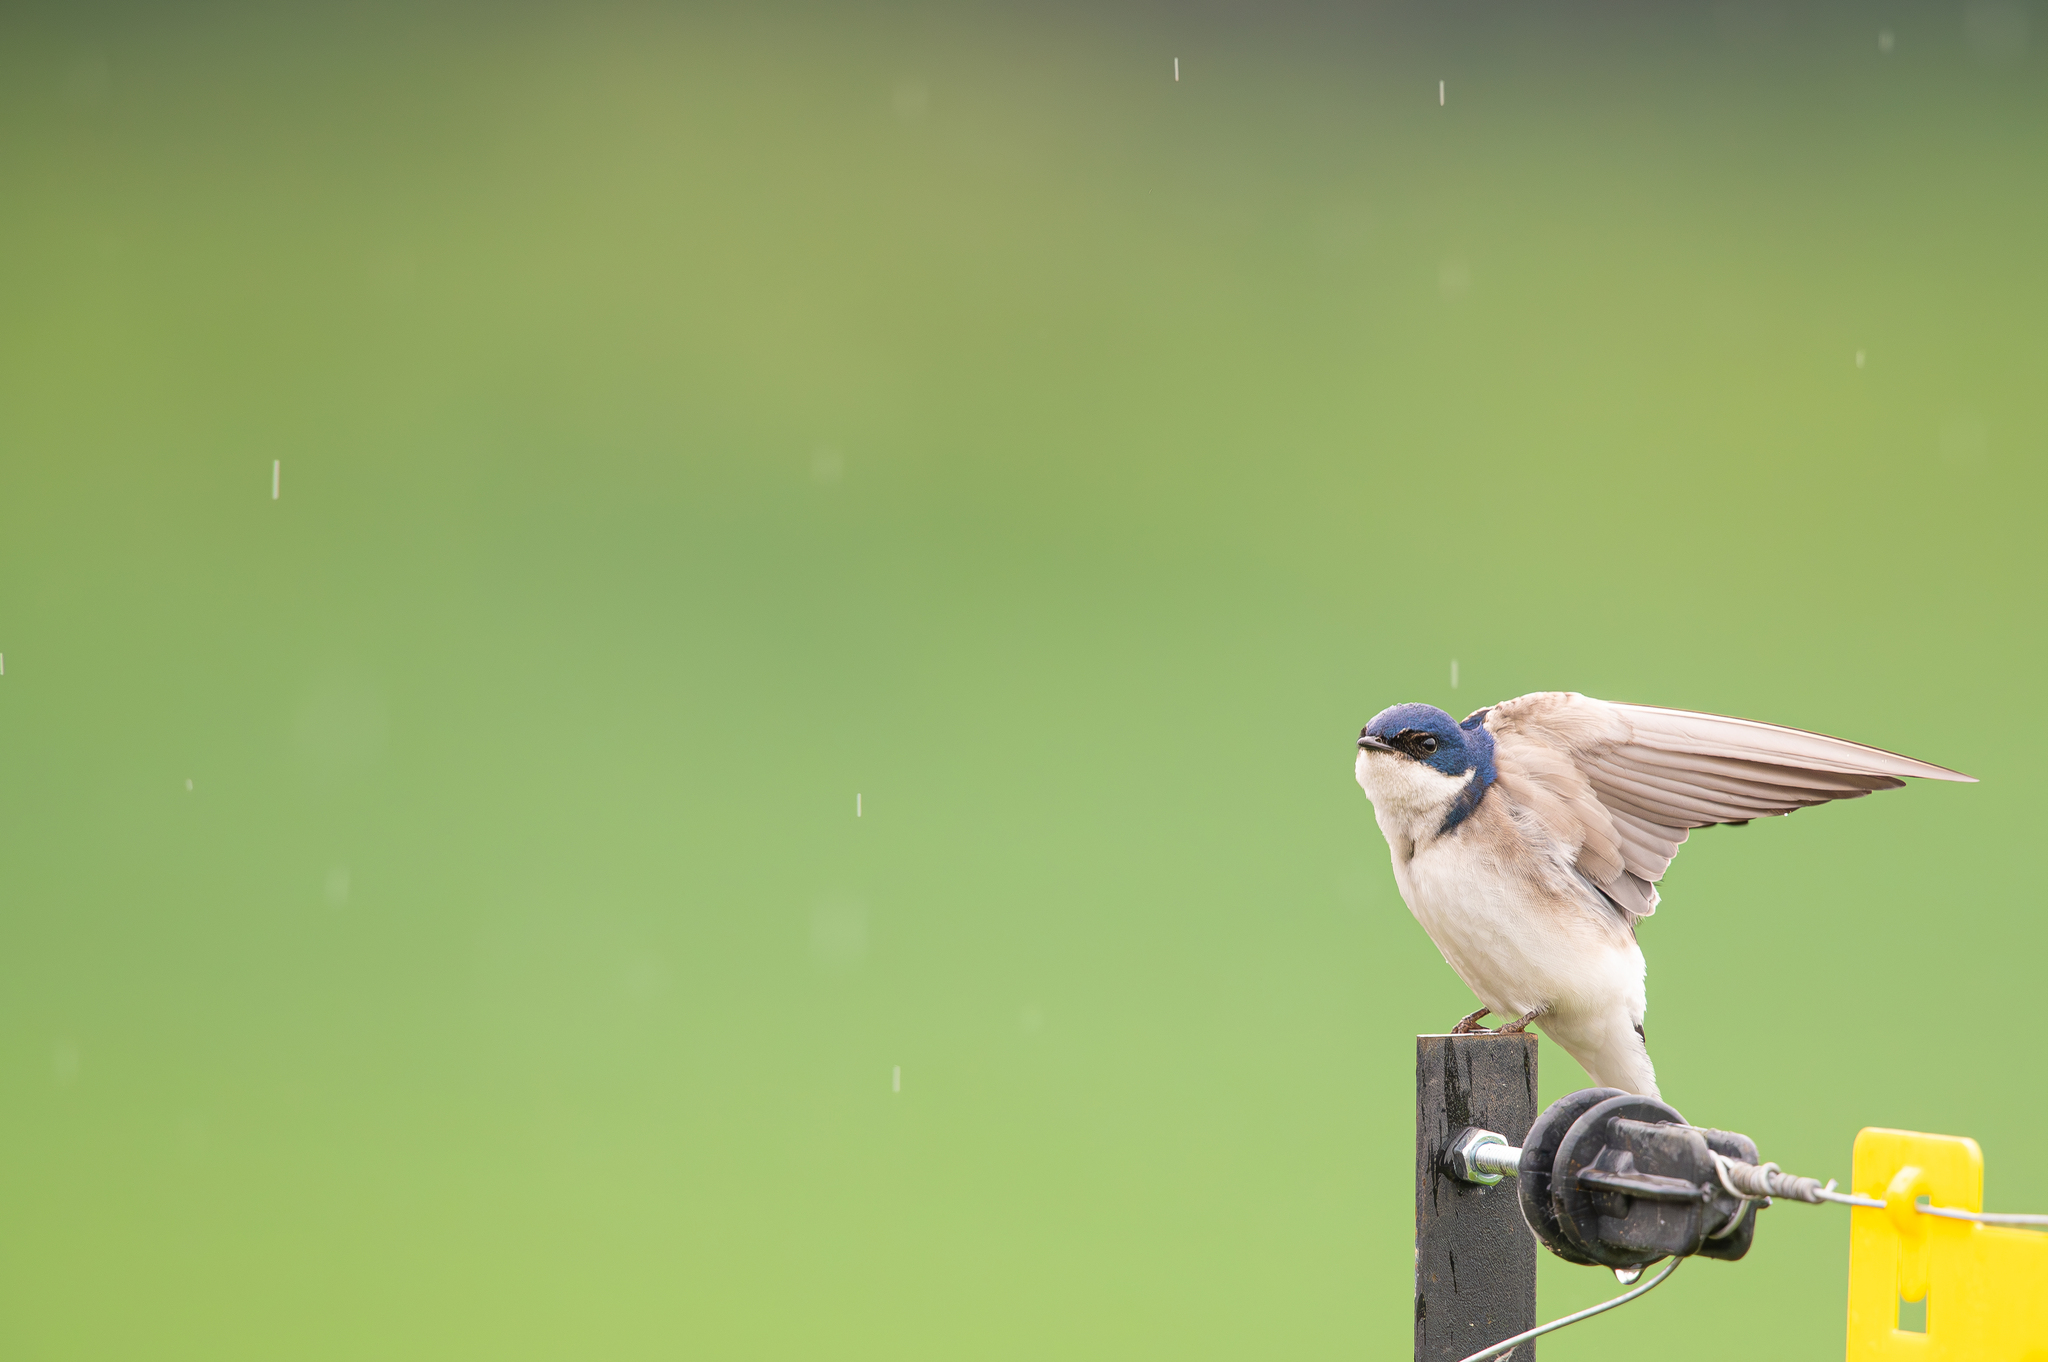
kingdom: Animalia
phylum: Chordata
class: Aves
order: Passeriformes
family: Hirundinidae
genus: Tachycineta
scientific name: Tachycineta leucopyga
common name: Chilean swallow
